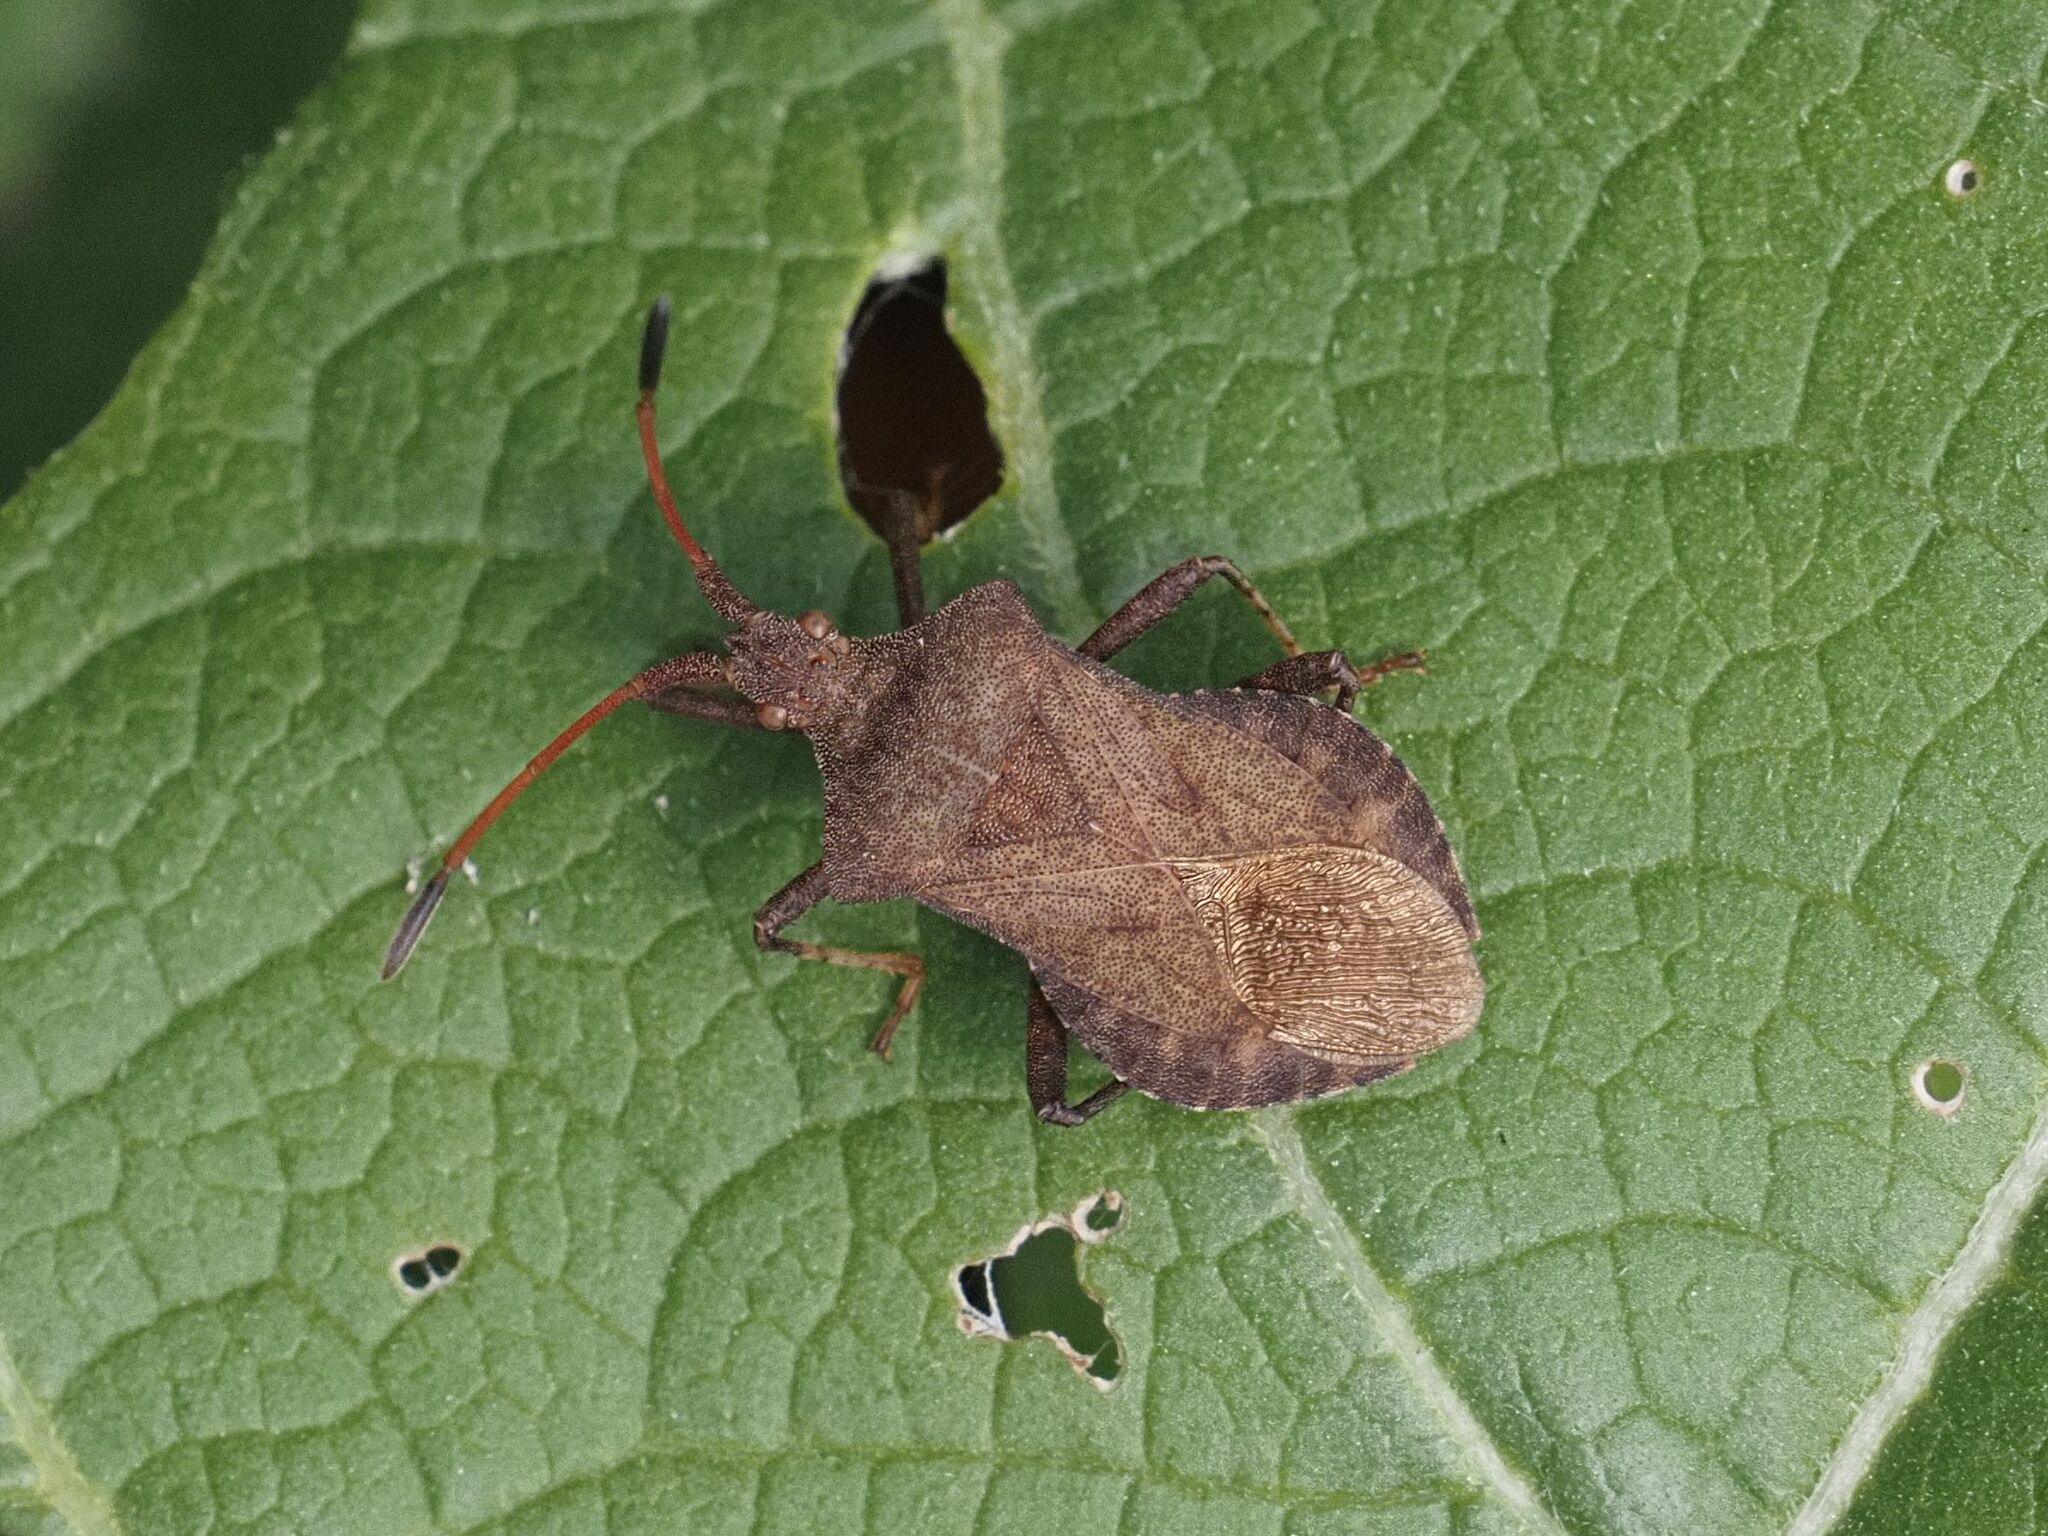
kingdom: Animalia
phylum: Arthropoda
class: Insecta
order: Hemiptera
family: Coreidae
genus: Coreus
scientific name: Coreus marginatus
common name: Dock bug
